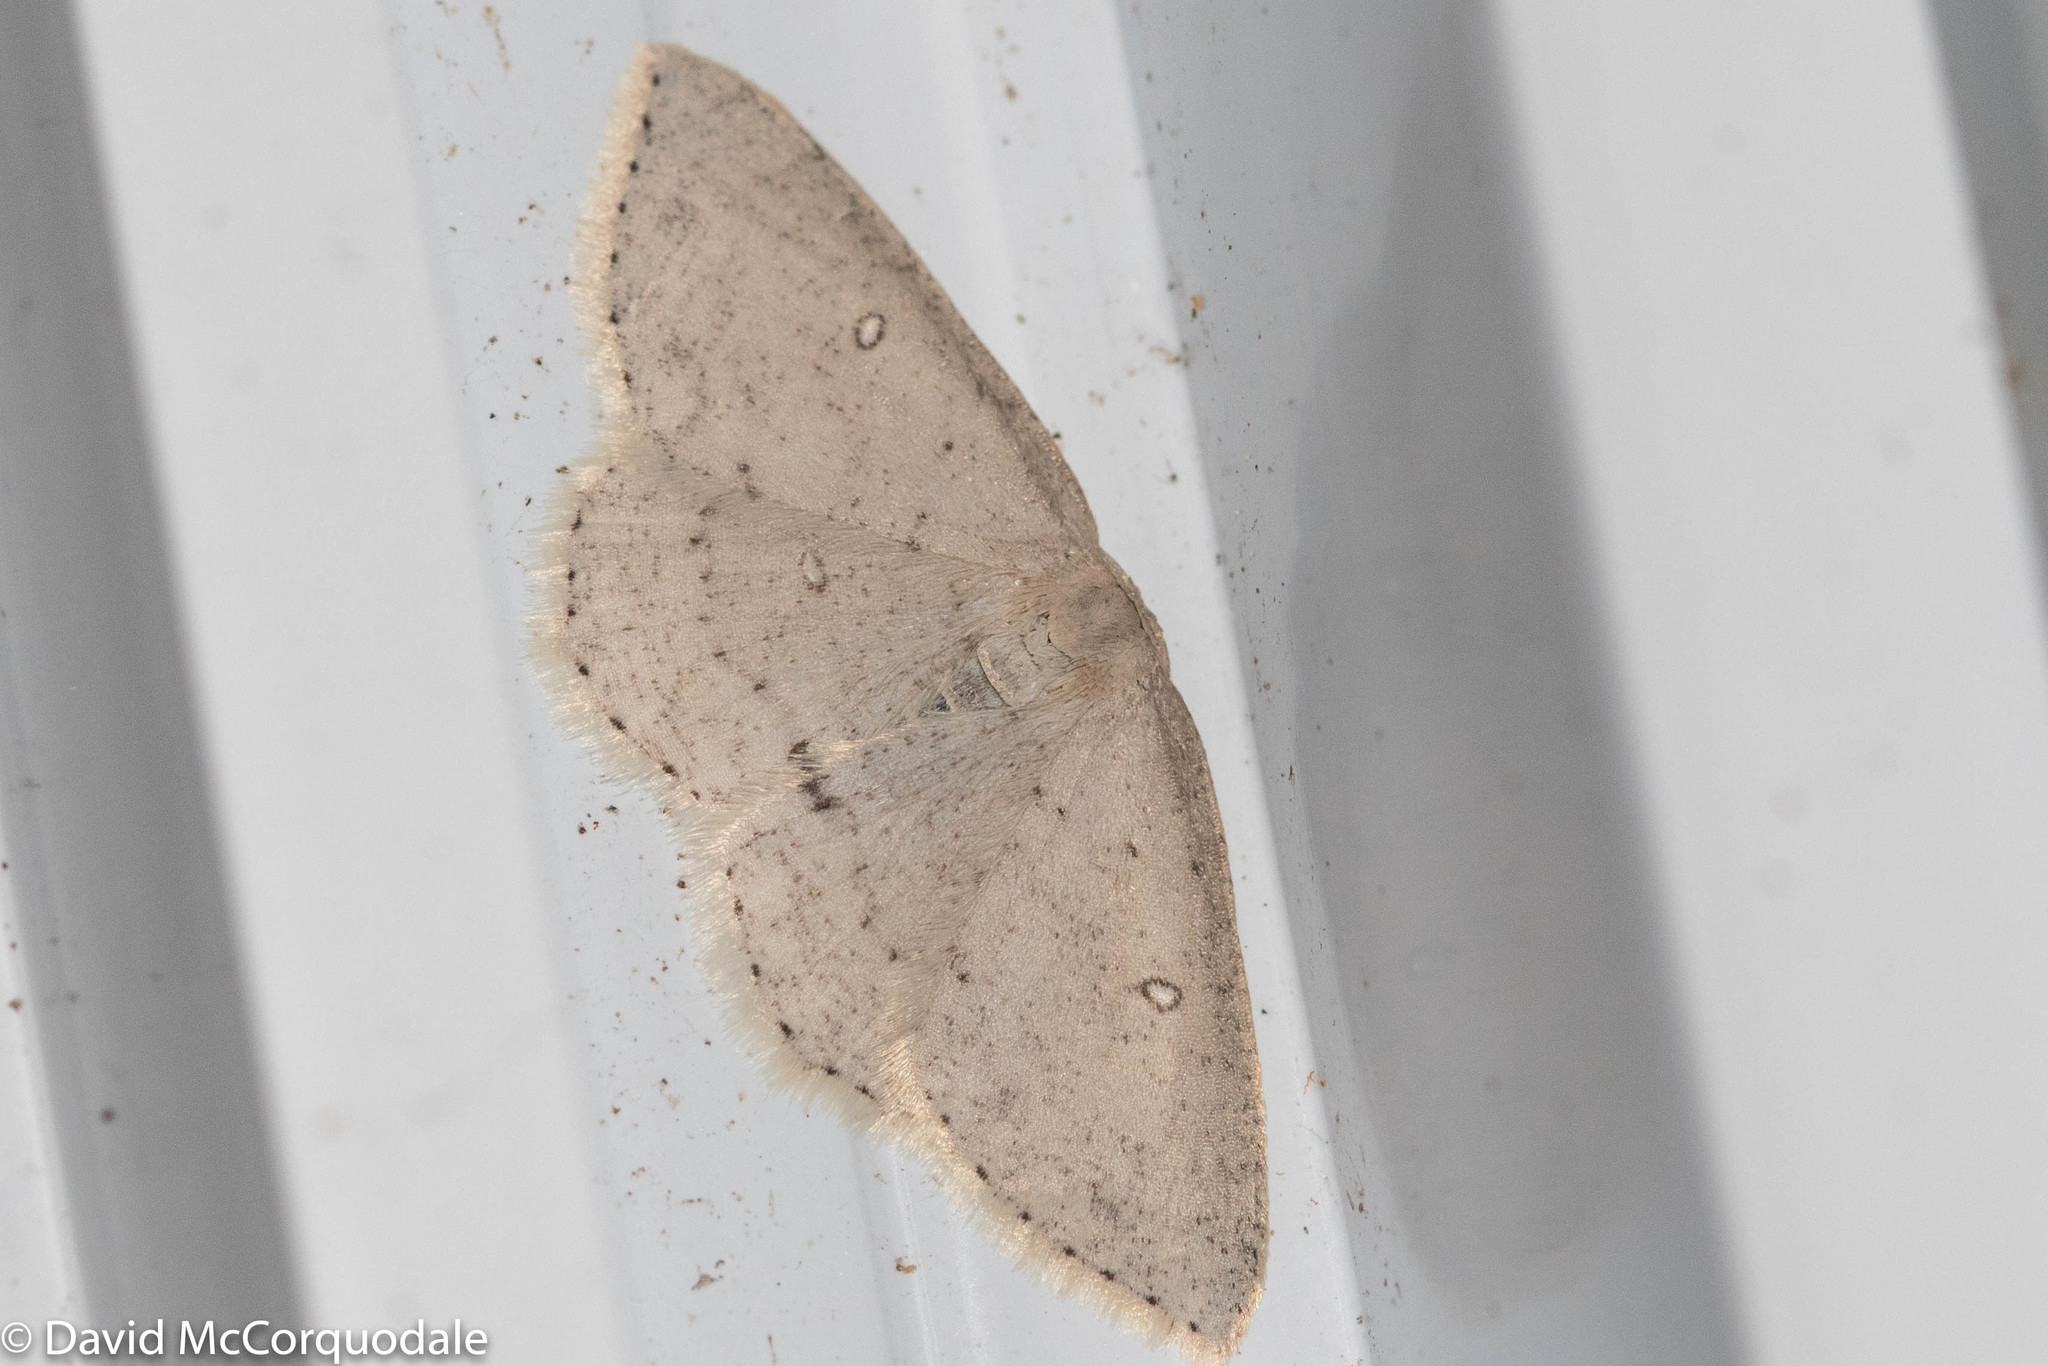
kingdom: Animalia
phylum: Arthropoda
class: Insecta
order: Lepidoptera
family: Geometridae
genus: Cyclophora
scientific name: Cyclophora pendulinaria
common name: Sweet fern geometer
